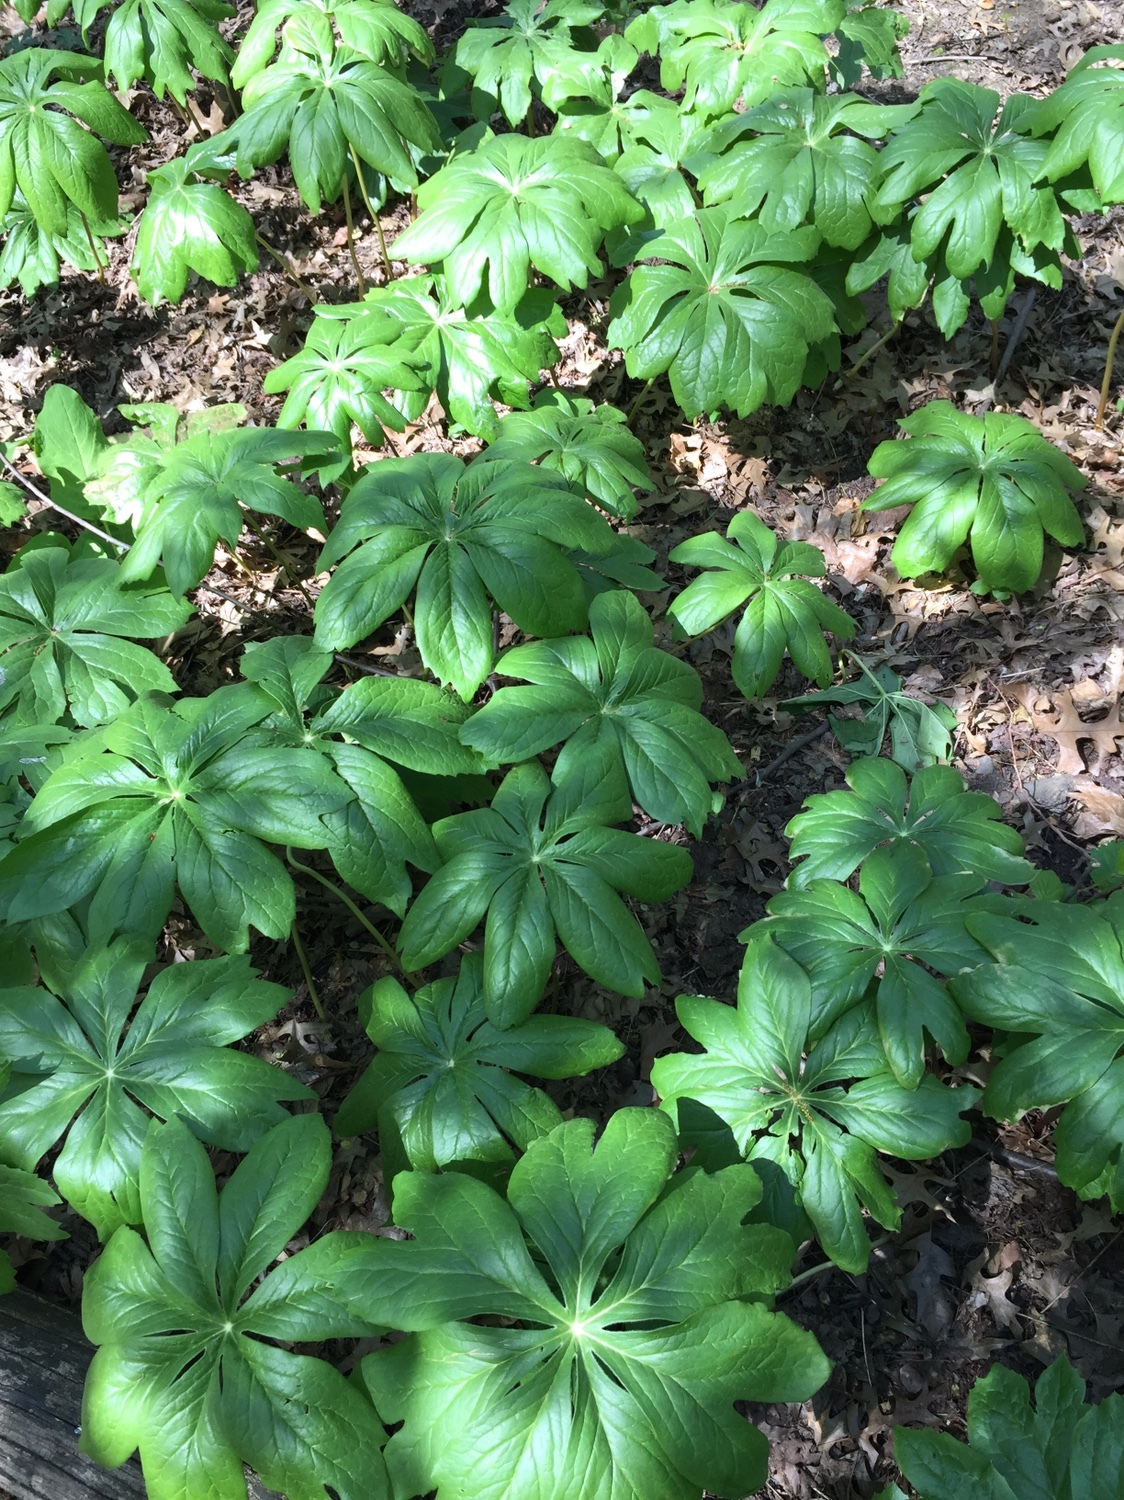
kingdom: Plantae
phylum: Tracheophyta
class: Magnoliopsida
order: Ranunculales
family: Berberidaceae
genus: Podophyllum
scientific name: Podophyllum peltatum
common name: Wild mandrake
